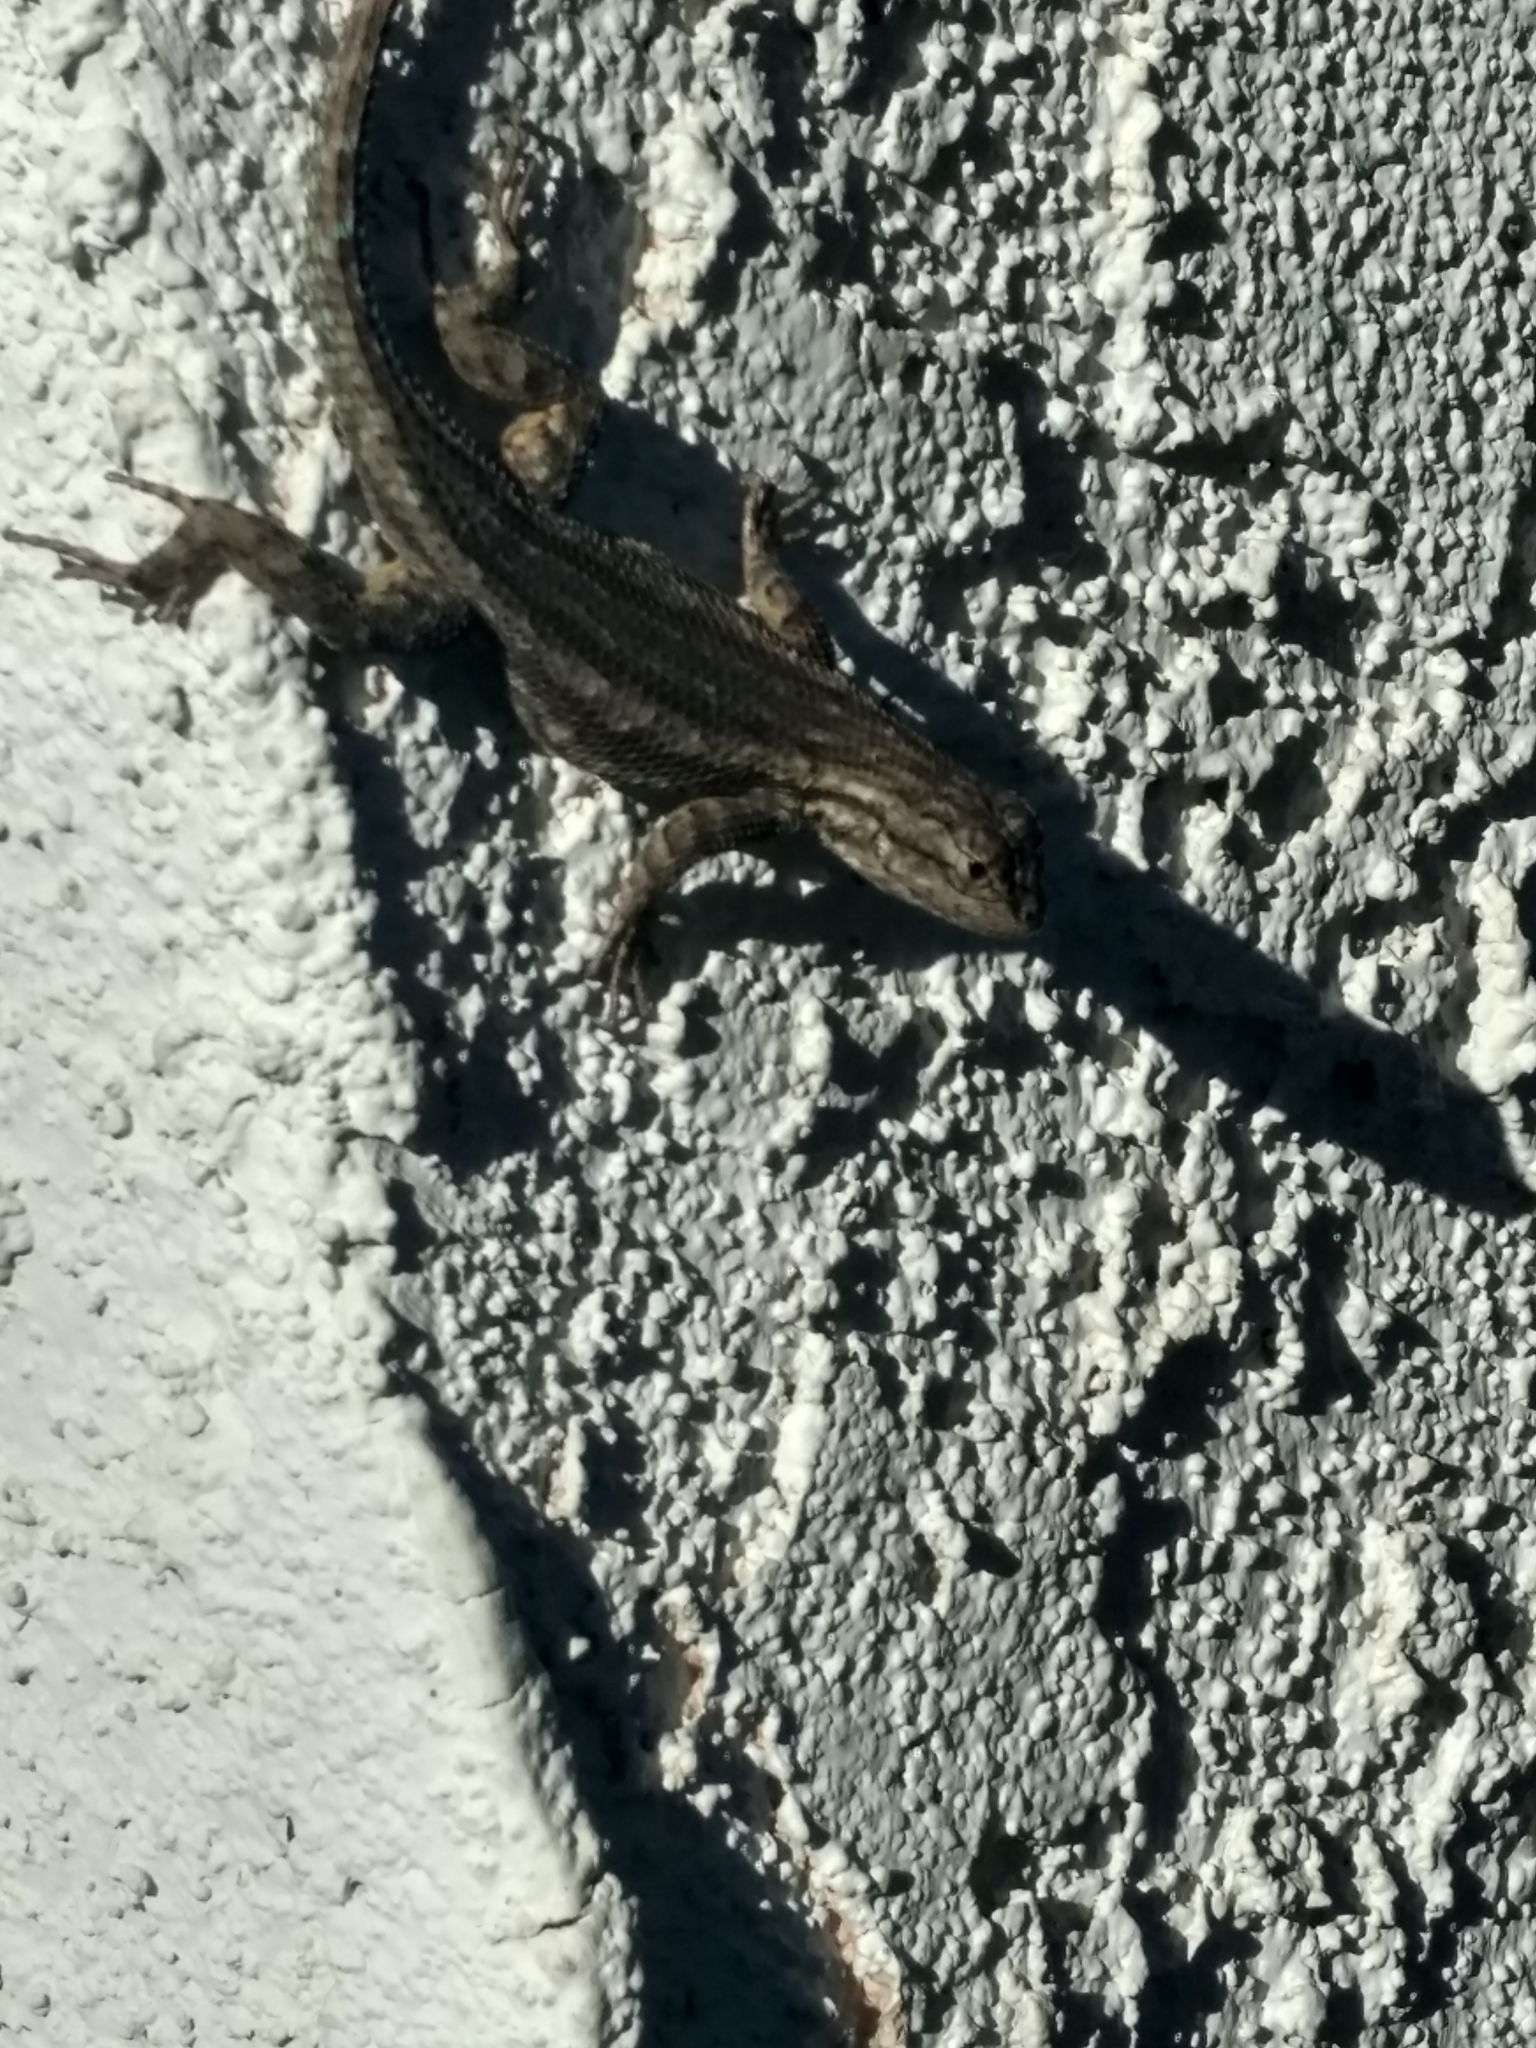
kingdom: Animalia
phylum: Chordata
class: Squamata
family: Phrynosomatidae
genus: Sceloporus
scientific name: Sceloporus occidentalis
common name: Western fence lizard
